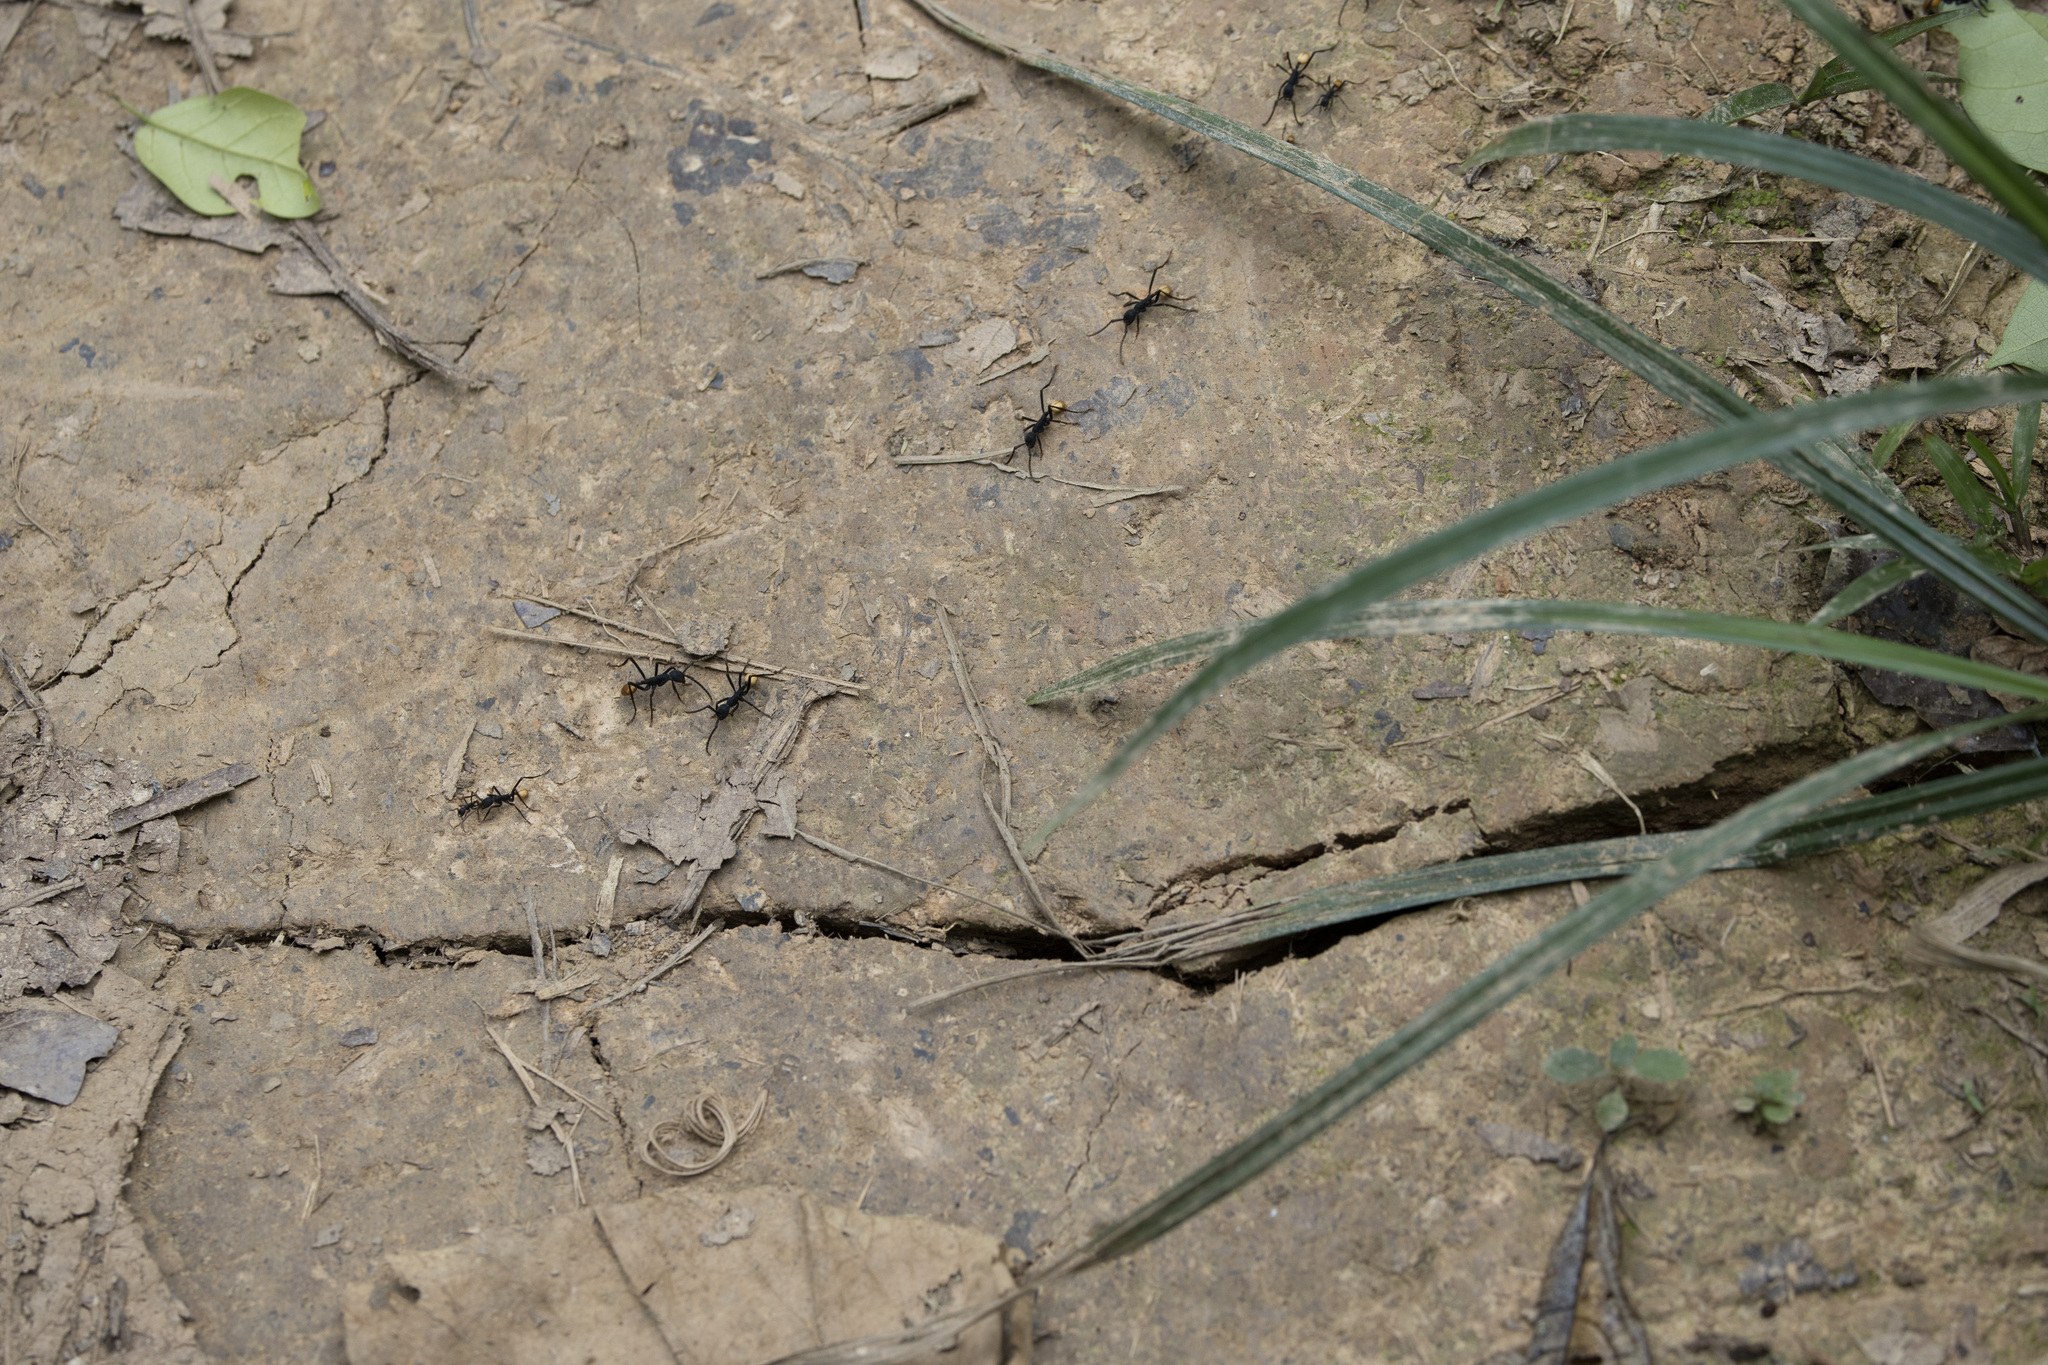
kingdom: Animalia
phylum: Arthropoda
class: Insecta
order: Hymenoptera
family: Formicidae
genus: Eciton
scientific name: Eciton rapax
